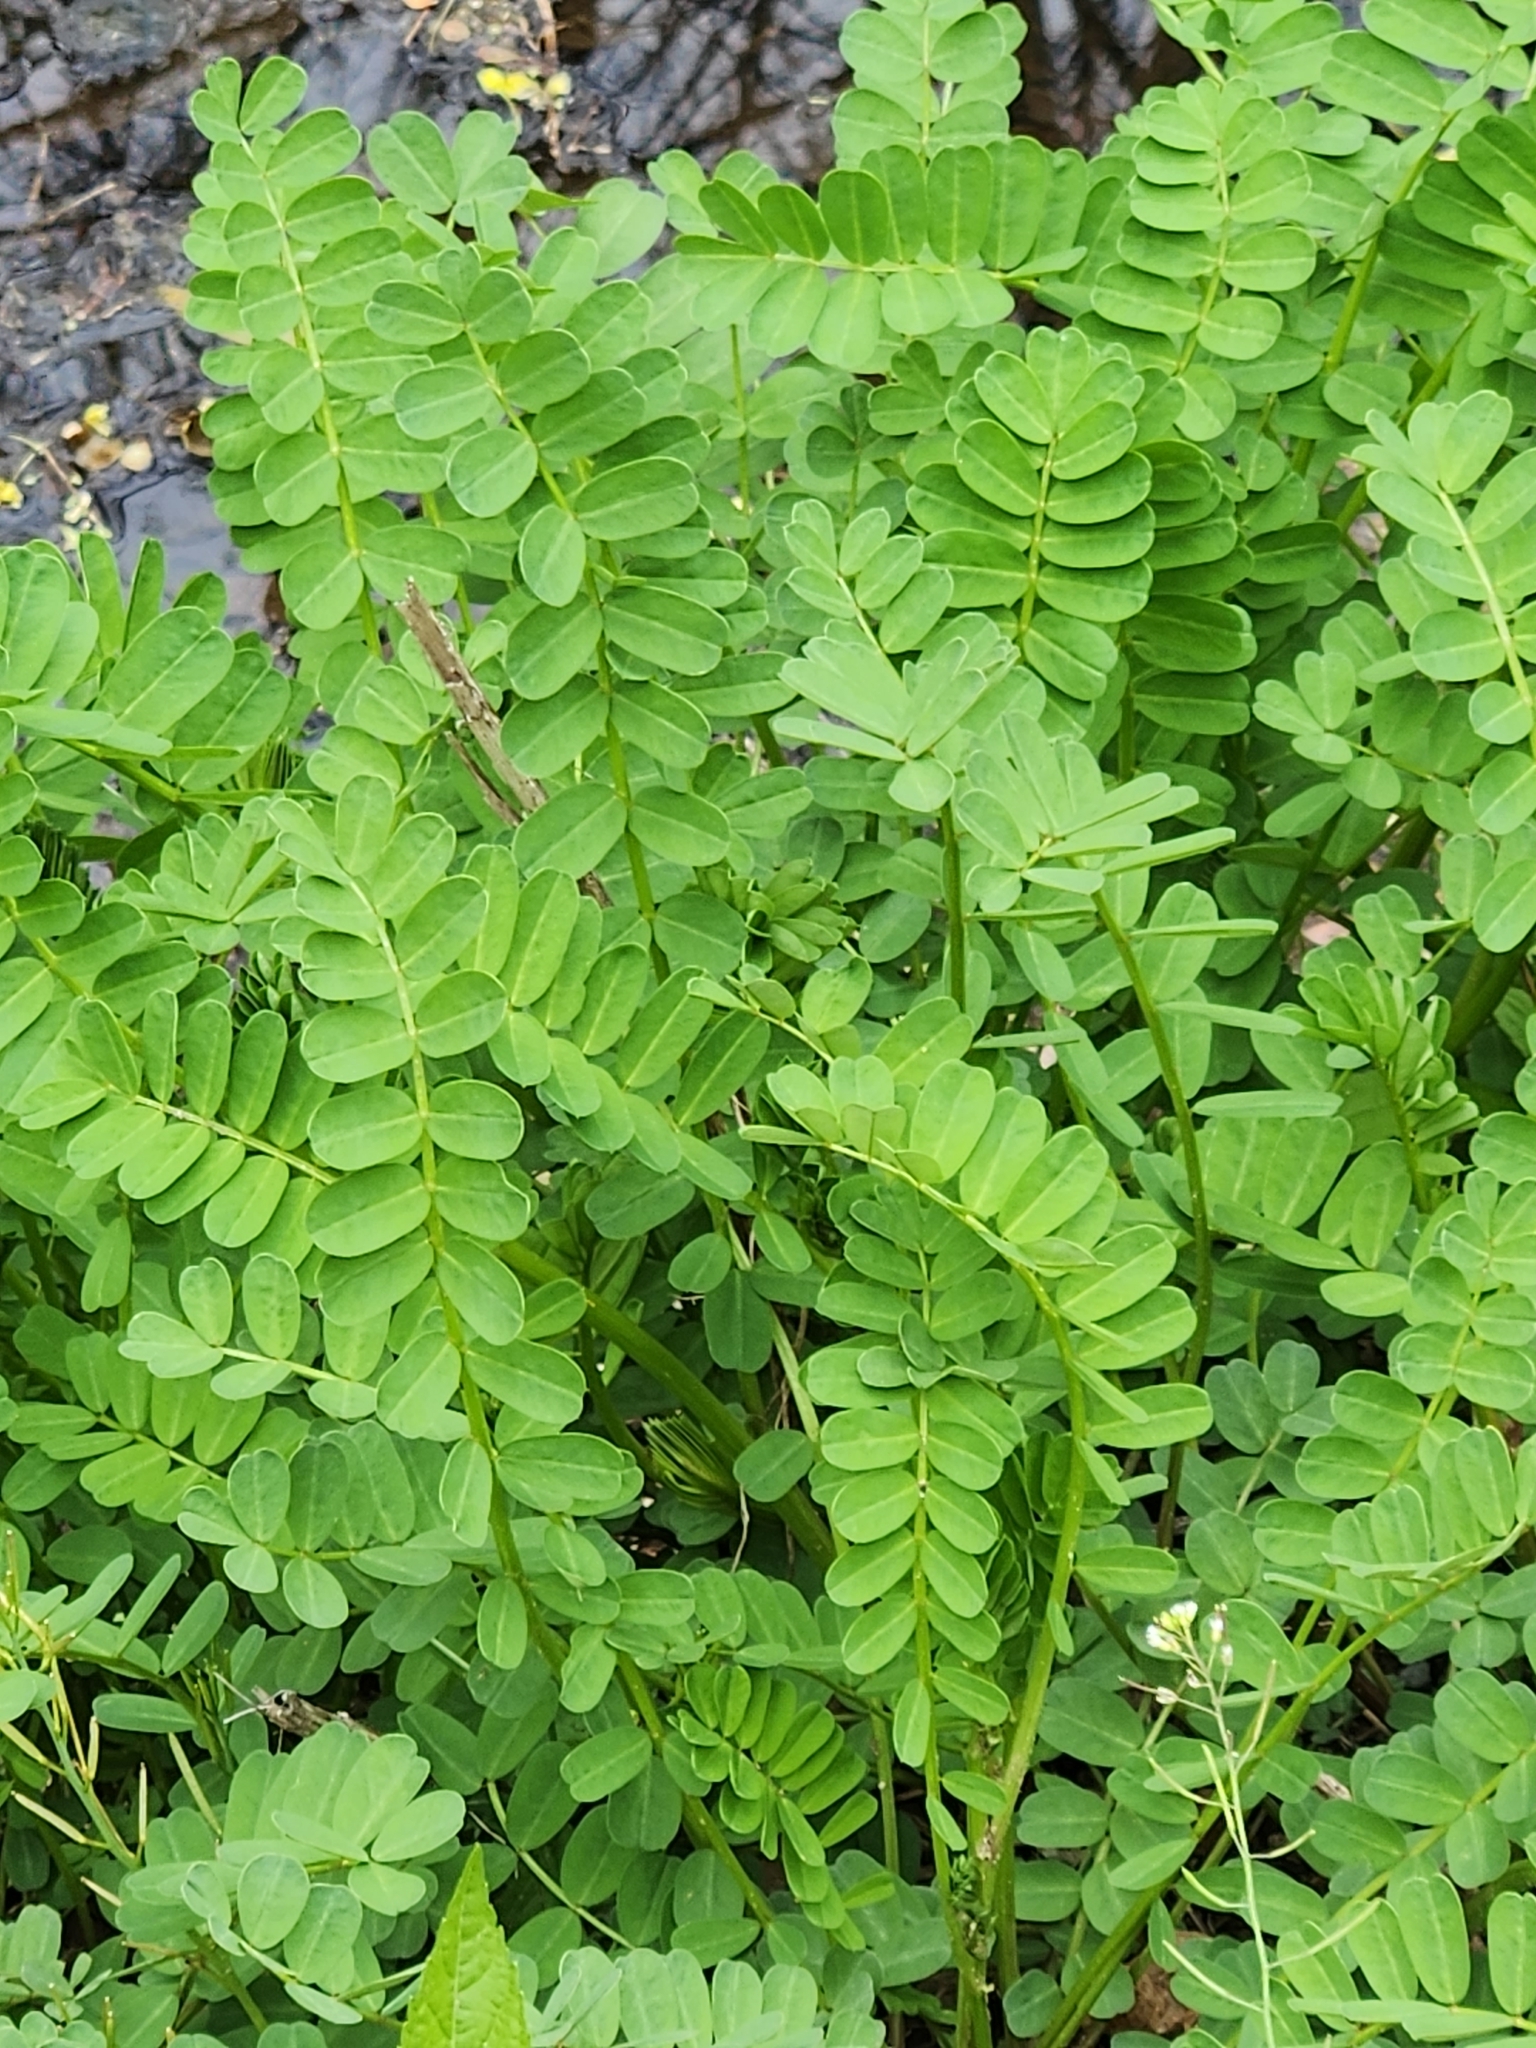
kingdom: Plantae
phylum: Tracheophyta
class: Magnoliopsida
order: Fabales
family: Fabaceae
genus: Coronilla
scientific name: Coronilla varia
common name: Crownvetch
